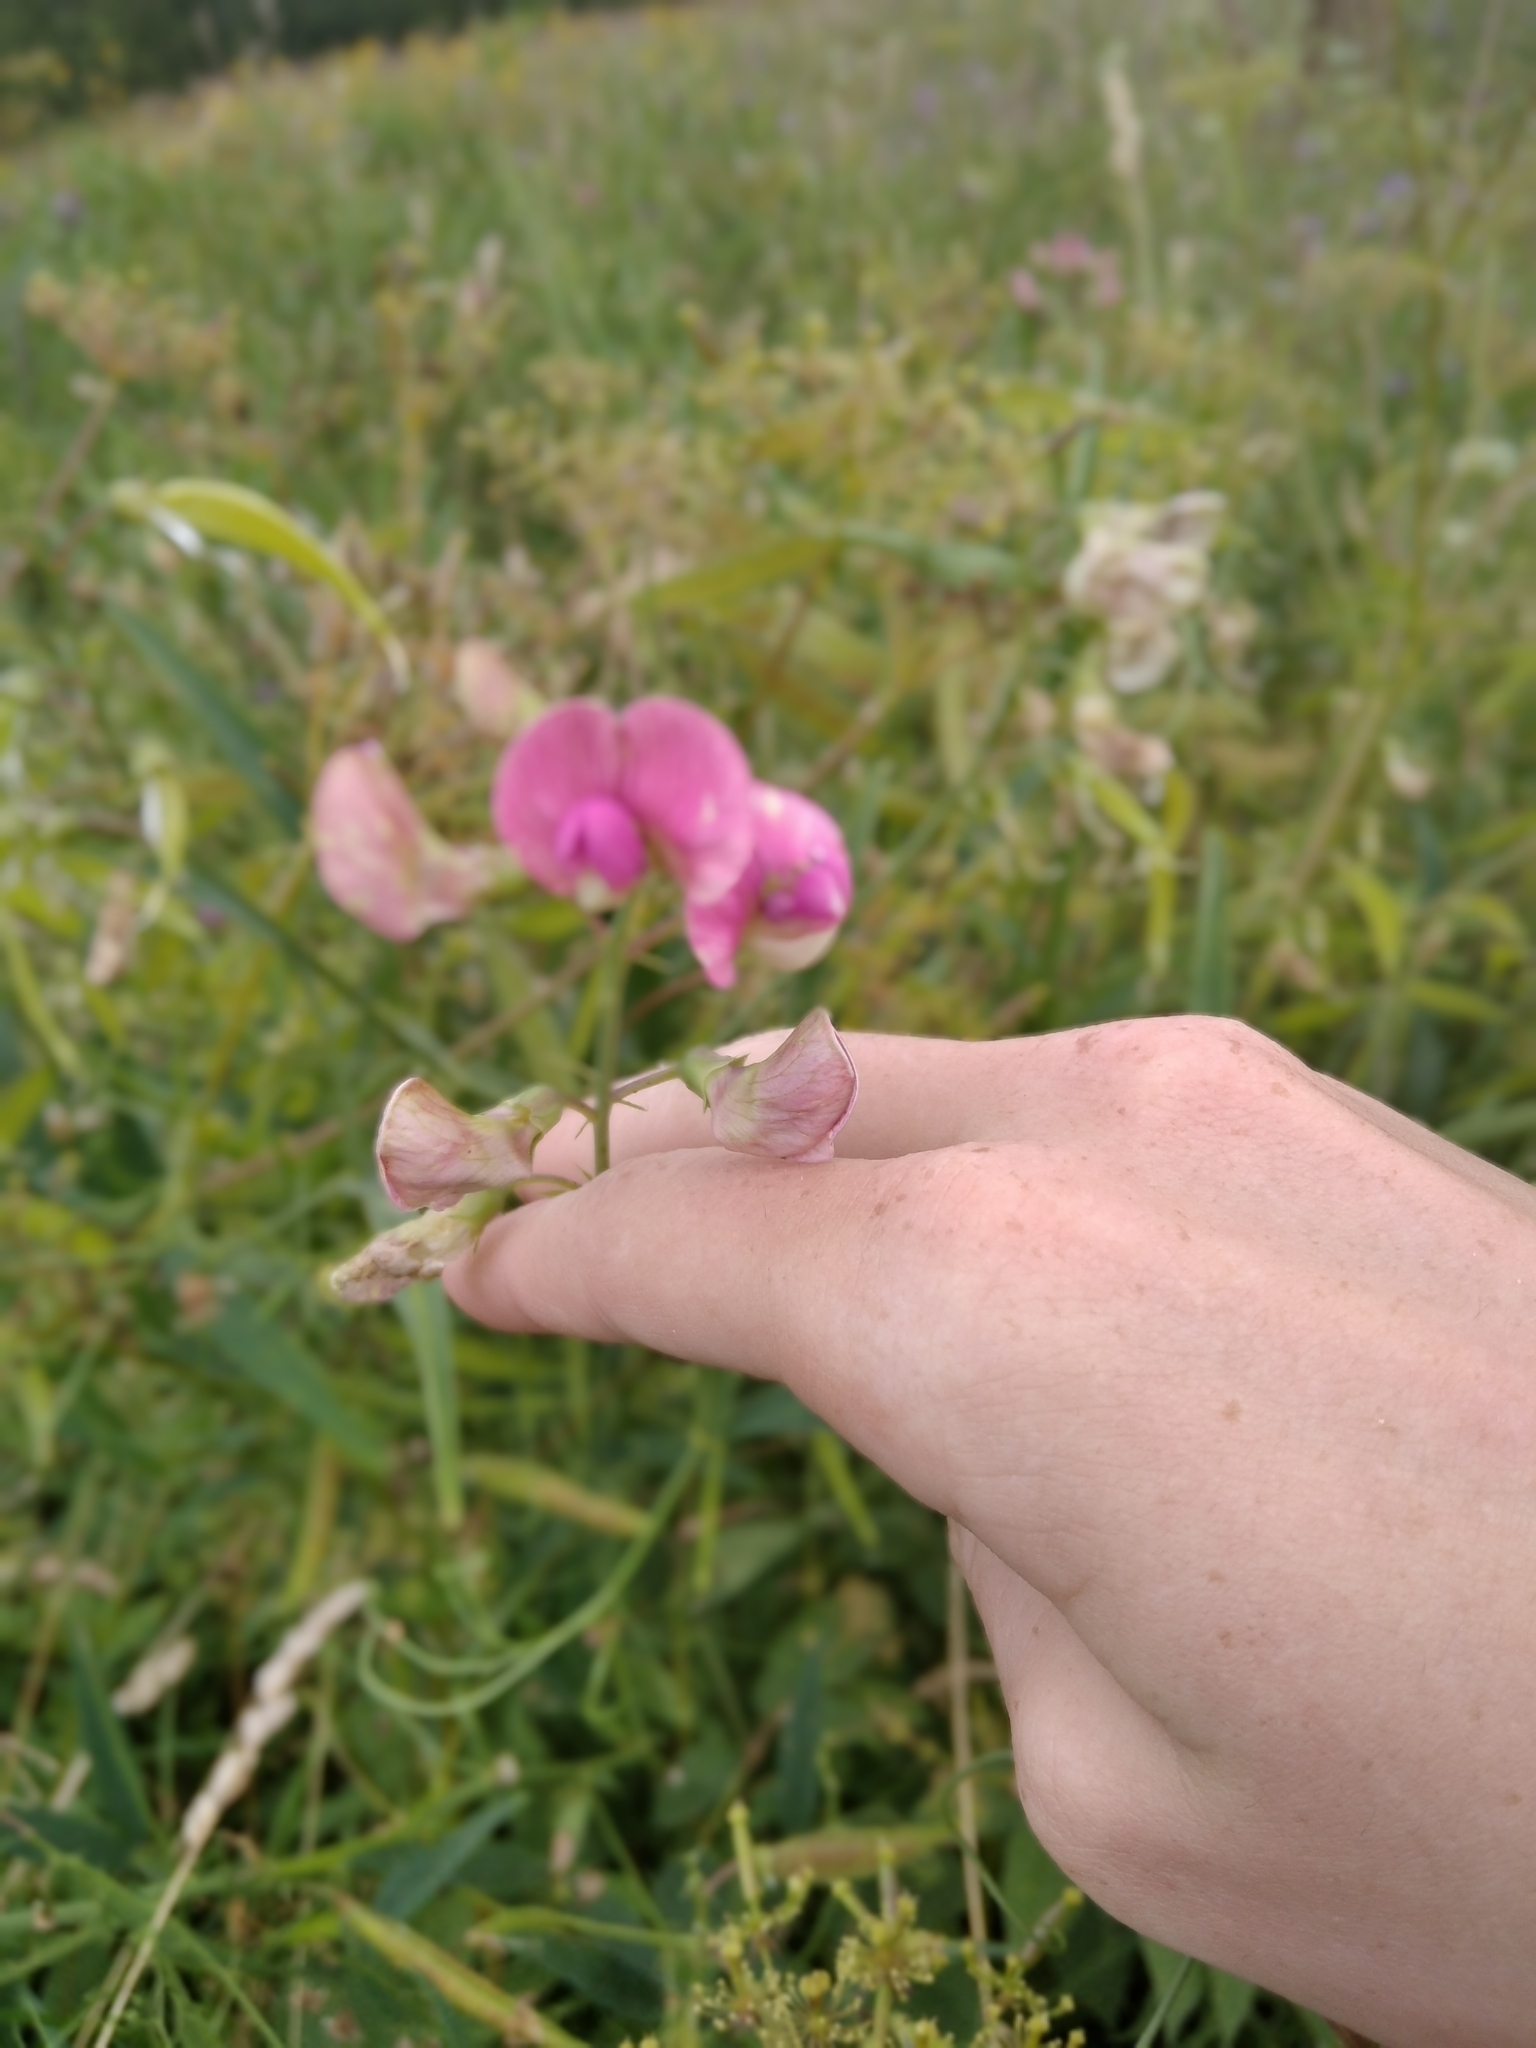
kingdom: Plantae
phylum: Tracheophyta
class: Magnoliopsida
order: Fabales
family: Fabaceae
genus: Lathyrus
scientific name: Lathyrus sylvestris
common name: Flat pea
